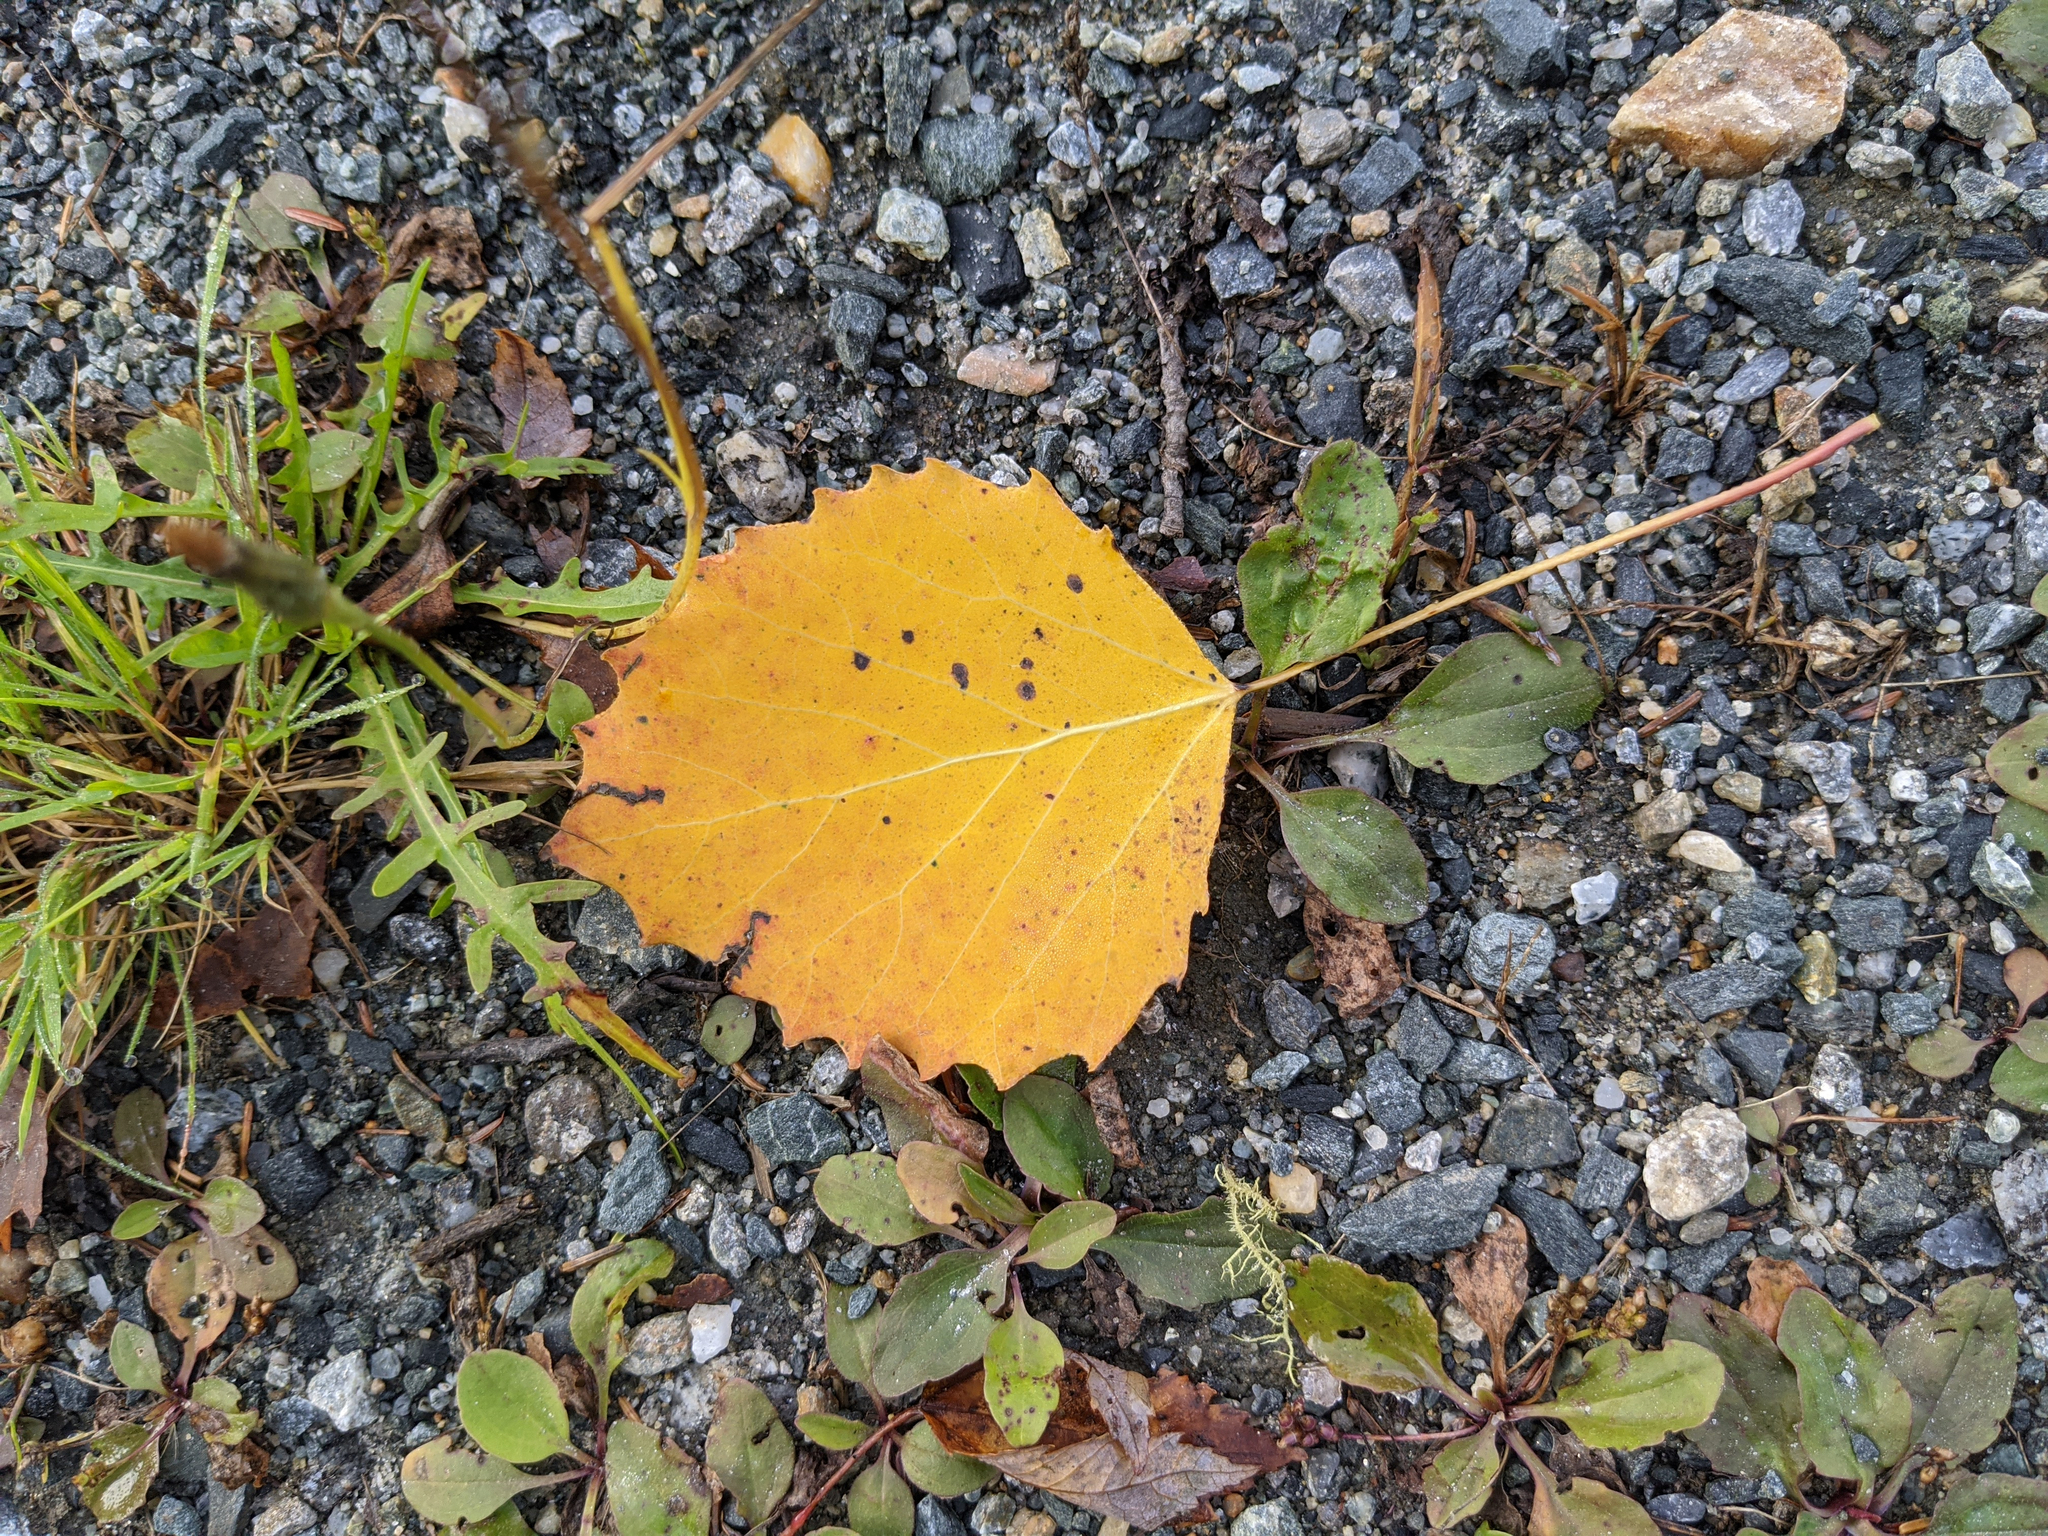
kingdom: Plantae
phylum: Tracheophyta
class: Magnoliopsida
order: Malpighiales
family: Salicaceae
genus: Populus
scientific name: Populus grandidentata
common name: Bigtooth aspen
